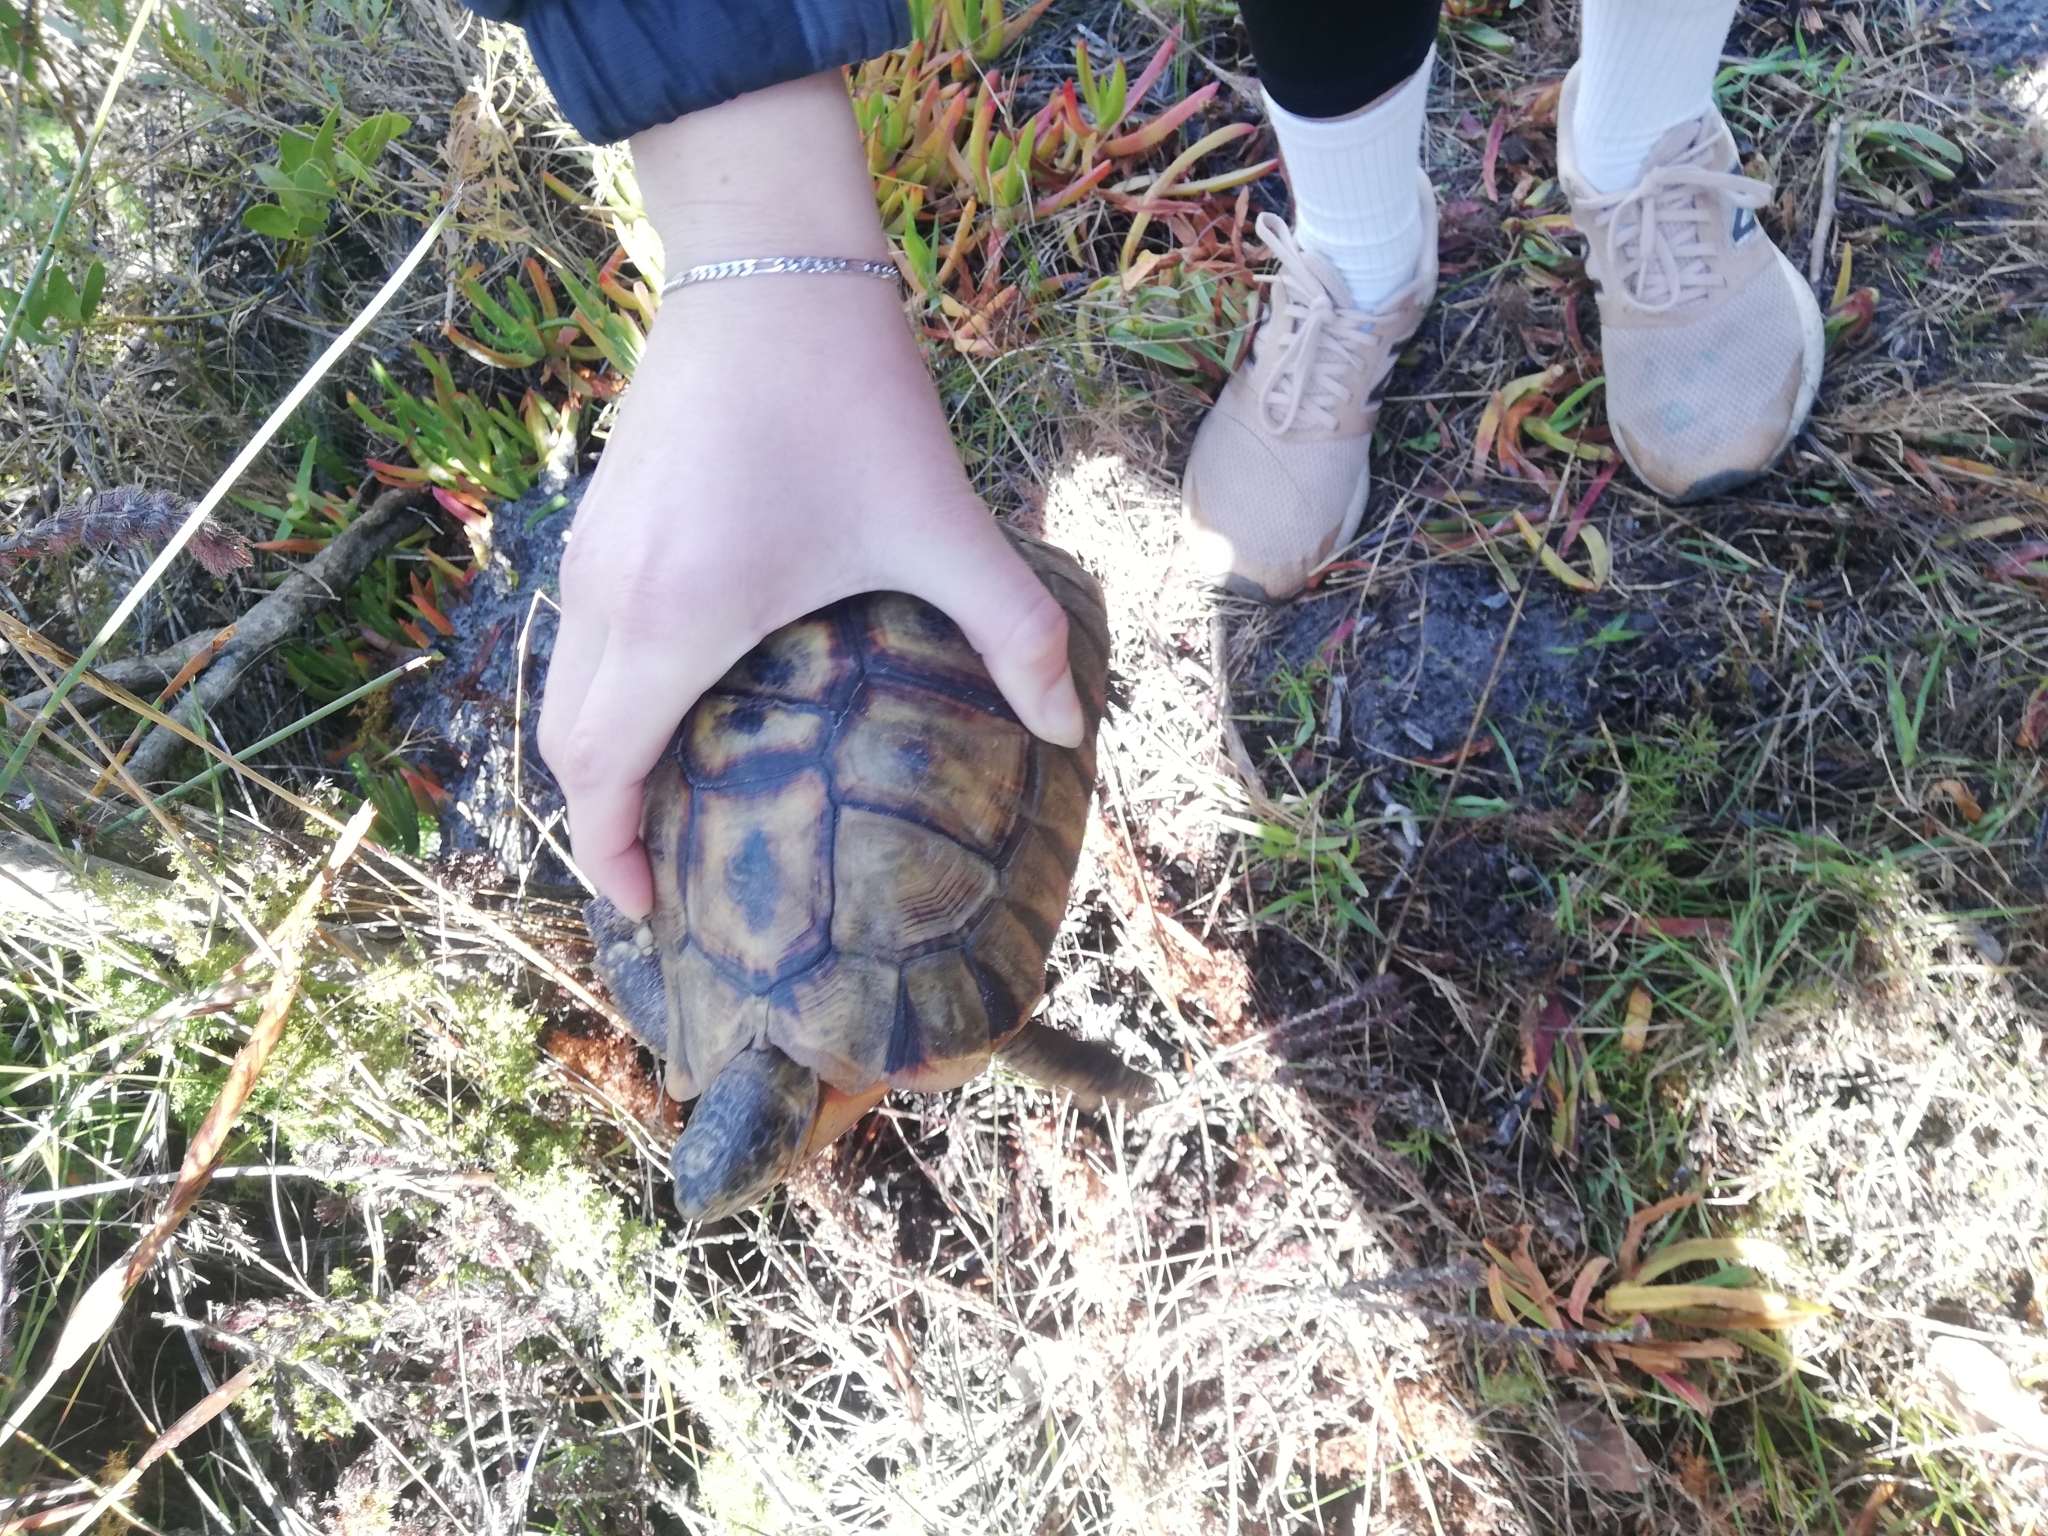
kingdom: Animalia
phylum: Chordata
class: Testudines
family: Testudinidae
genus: Chersina
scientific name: Chersina angulata
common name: South african bowsprit tortoise
